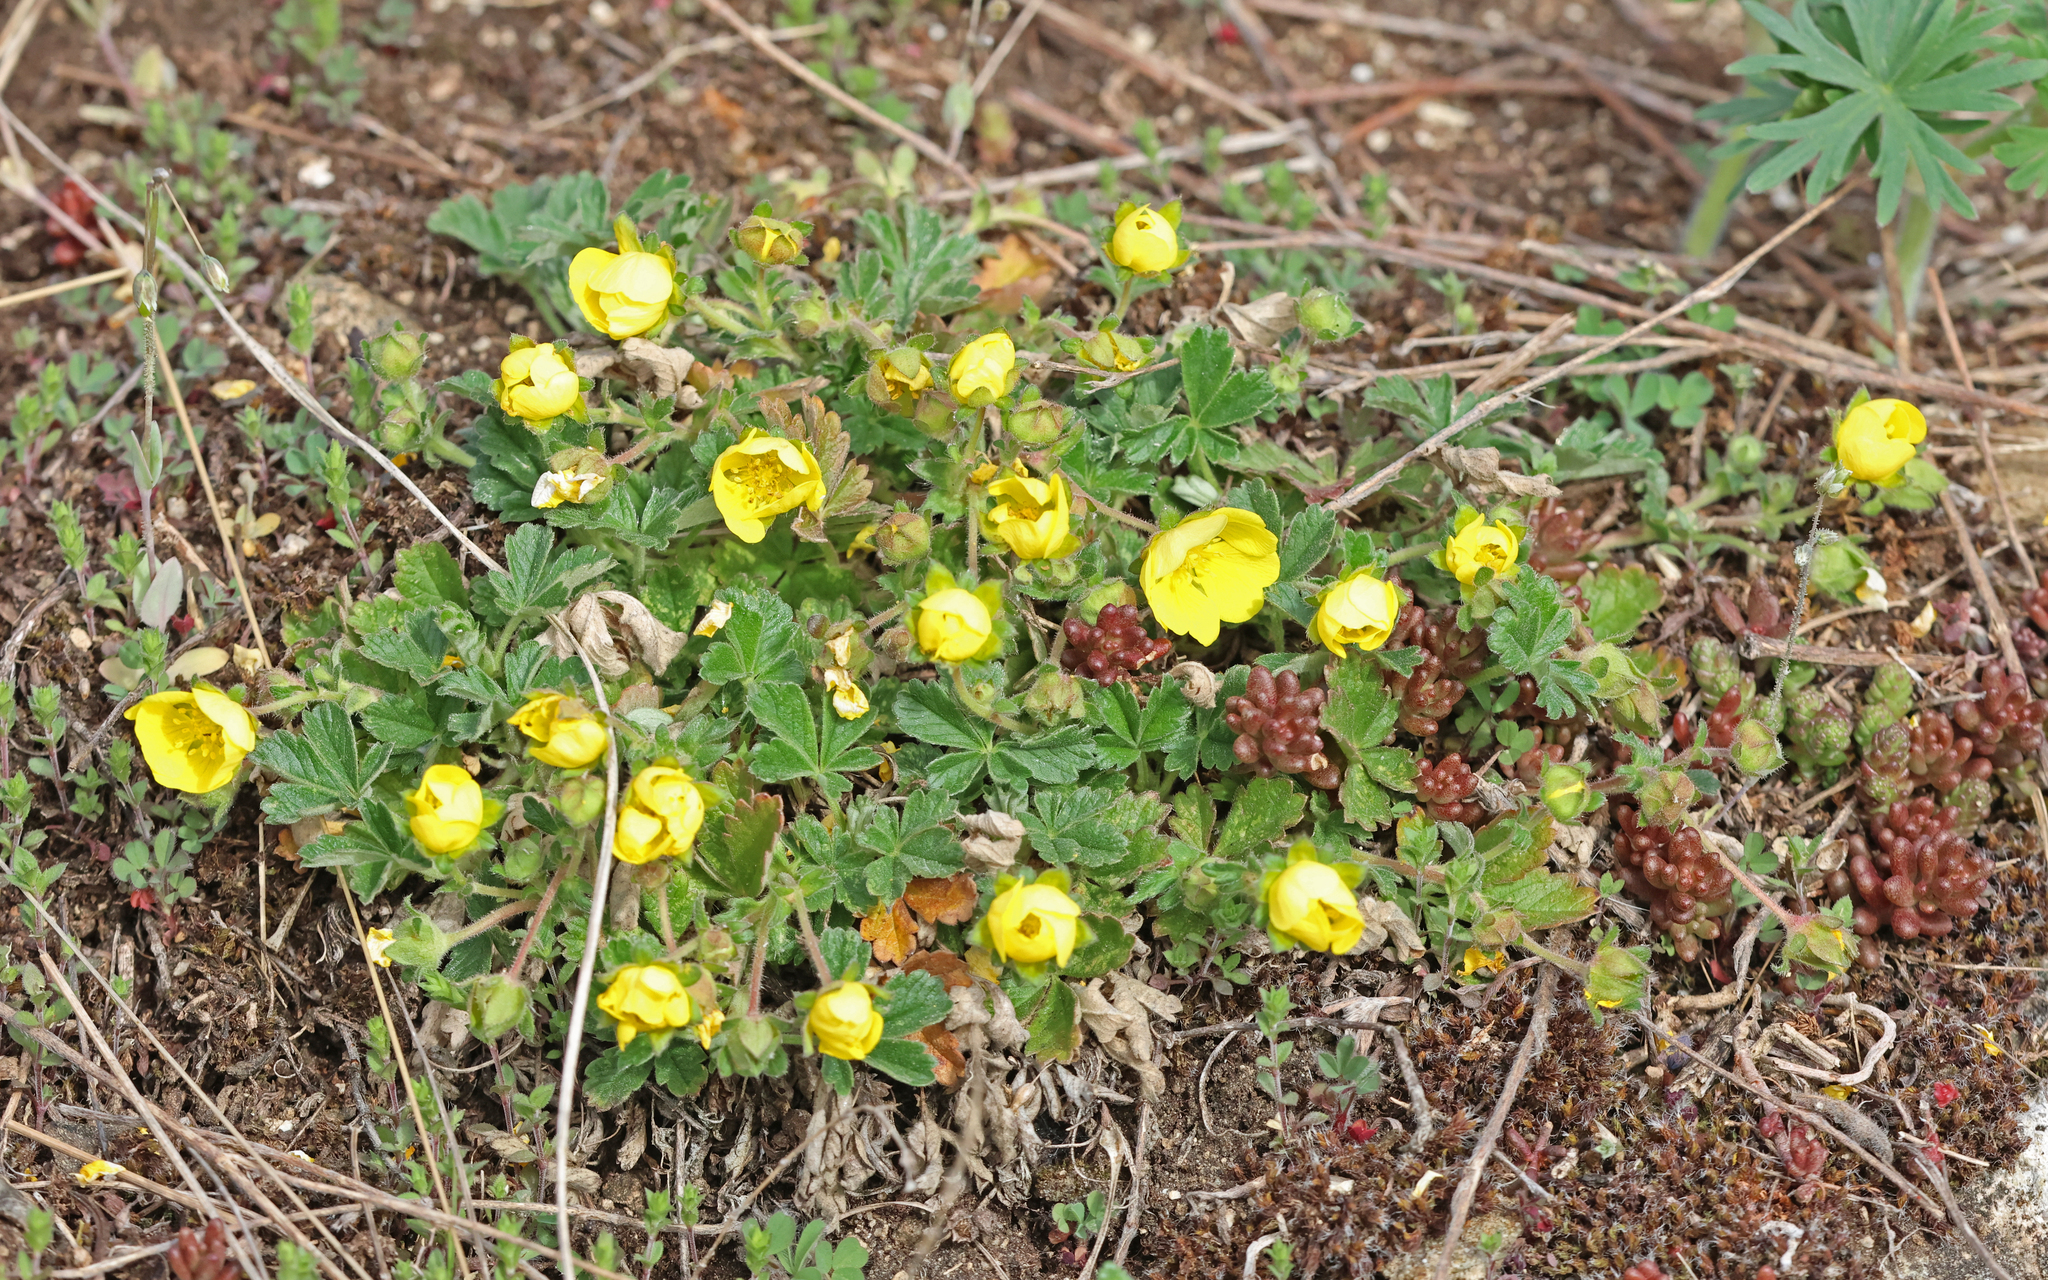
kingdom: Plantae
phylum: Tracheophyta
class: Magnoliopsida
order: Rosales
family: Rosaceae
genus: Potentilla
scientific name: Potentilla incana
